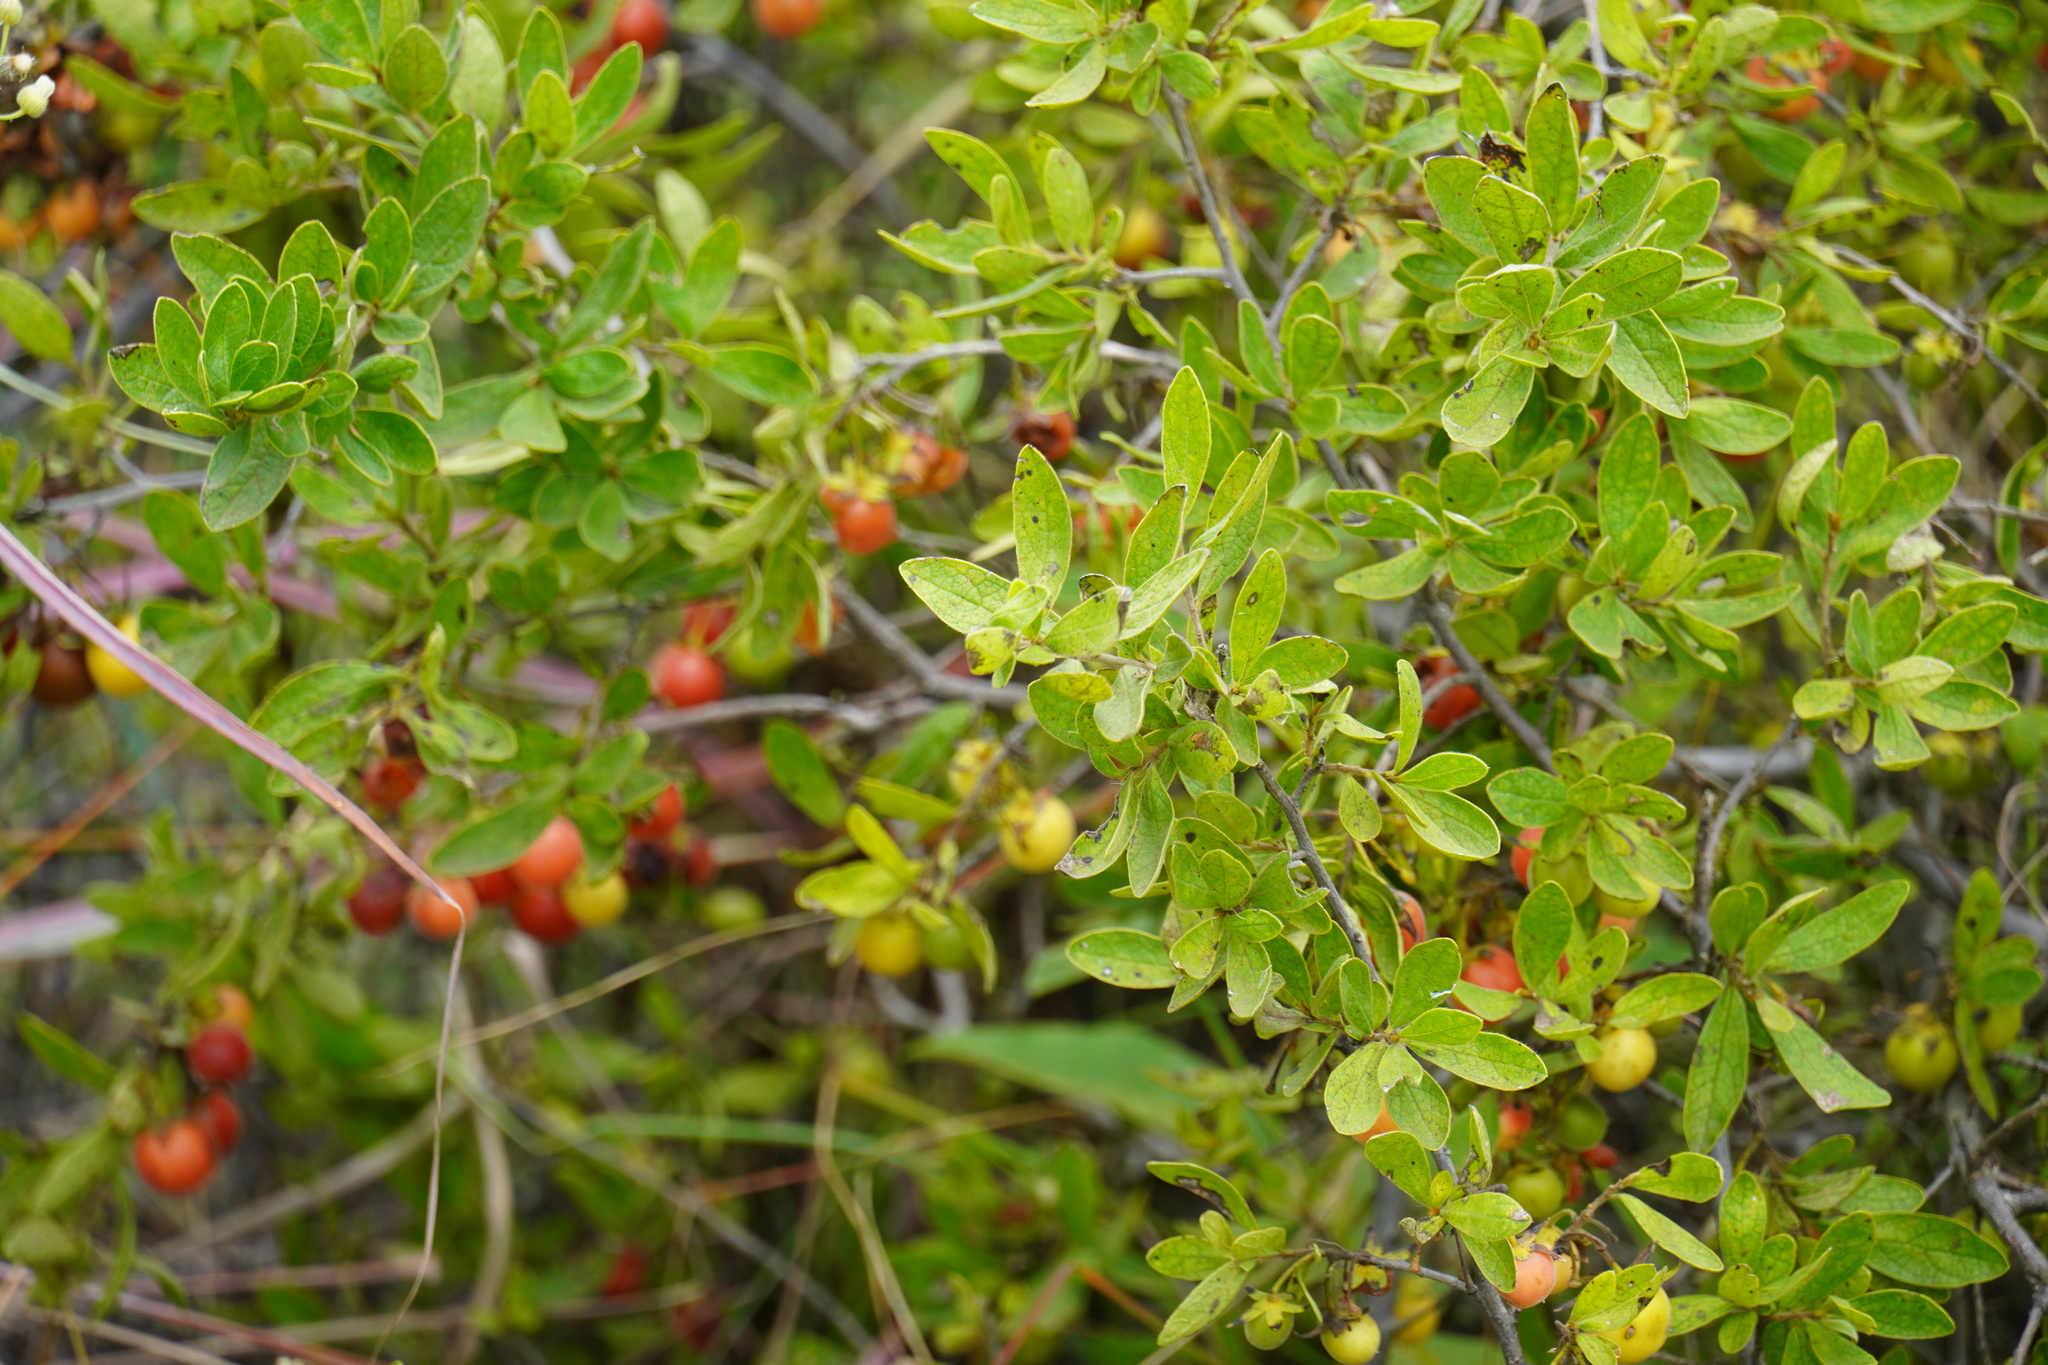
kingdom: Plantae
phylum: Tracheophyta
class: Magnoliopsida
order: Ericales
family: Ebenaceae
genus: Diospyros
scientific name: Diospyros lycioides
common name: Red star apple
